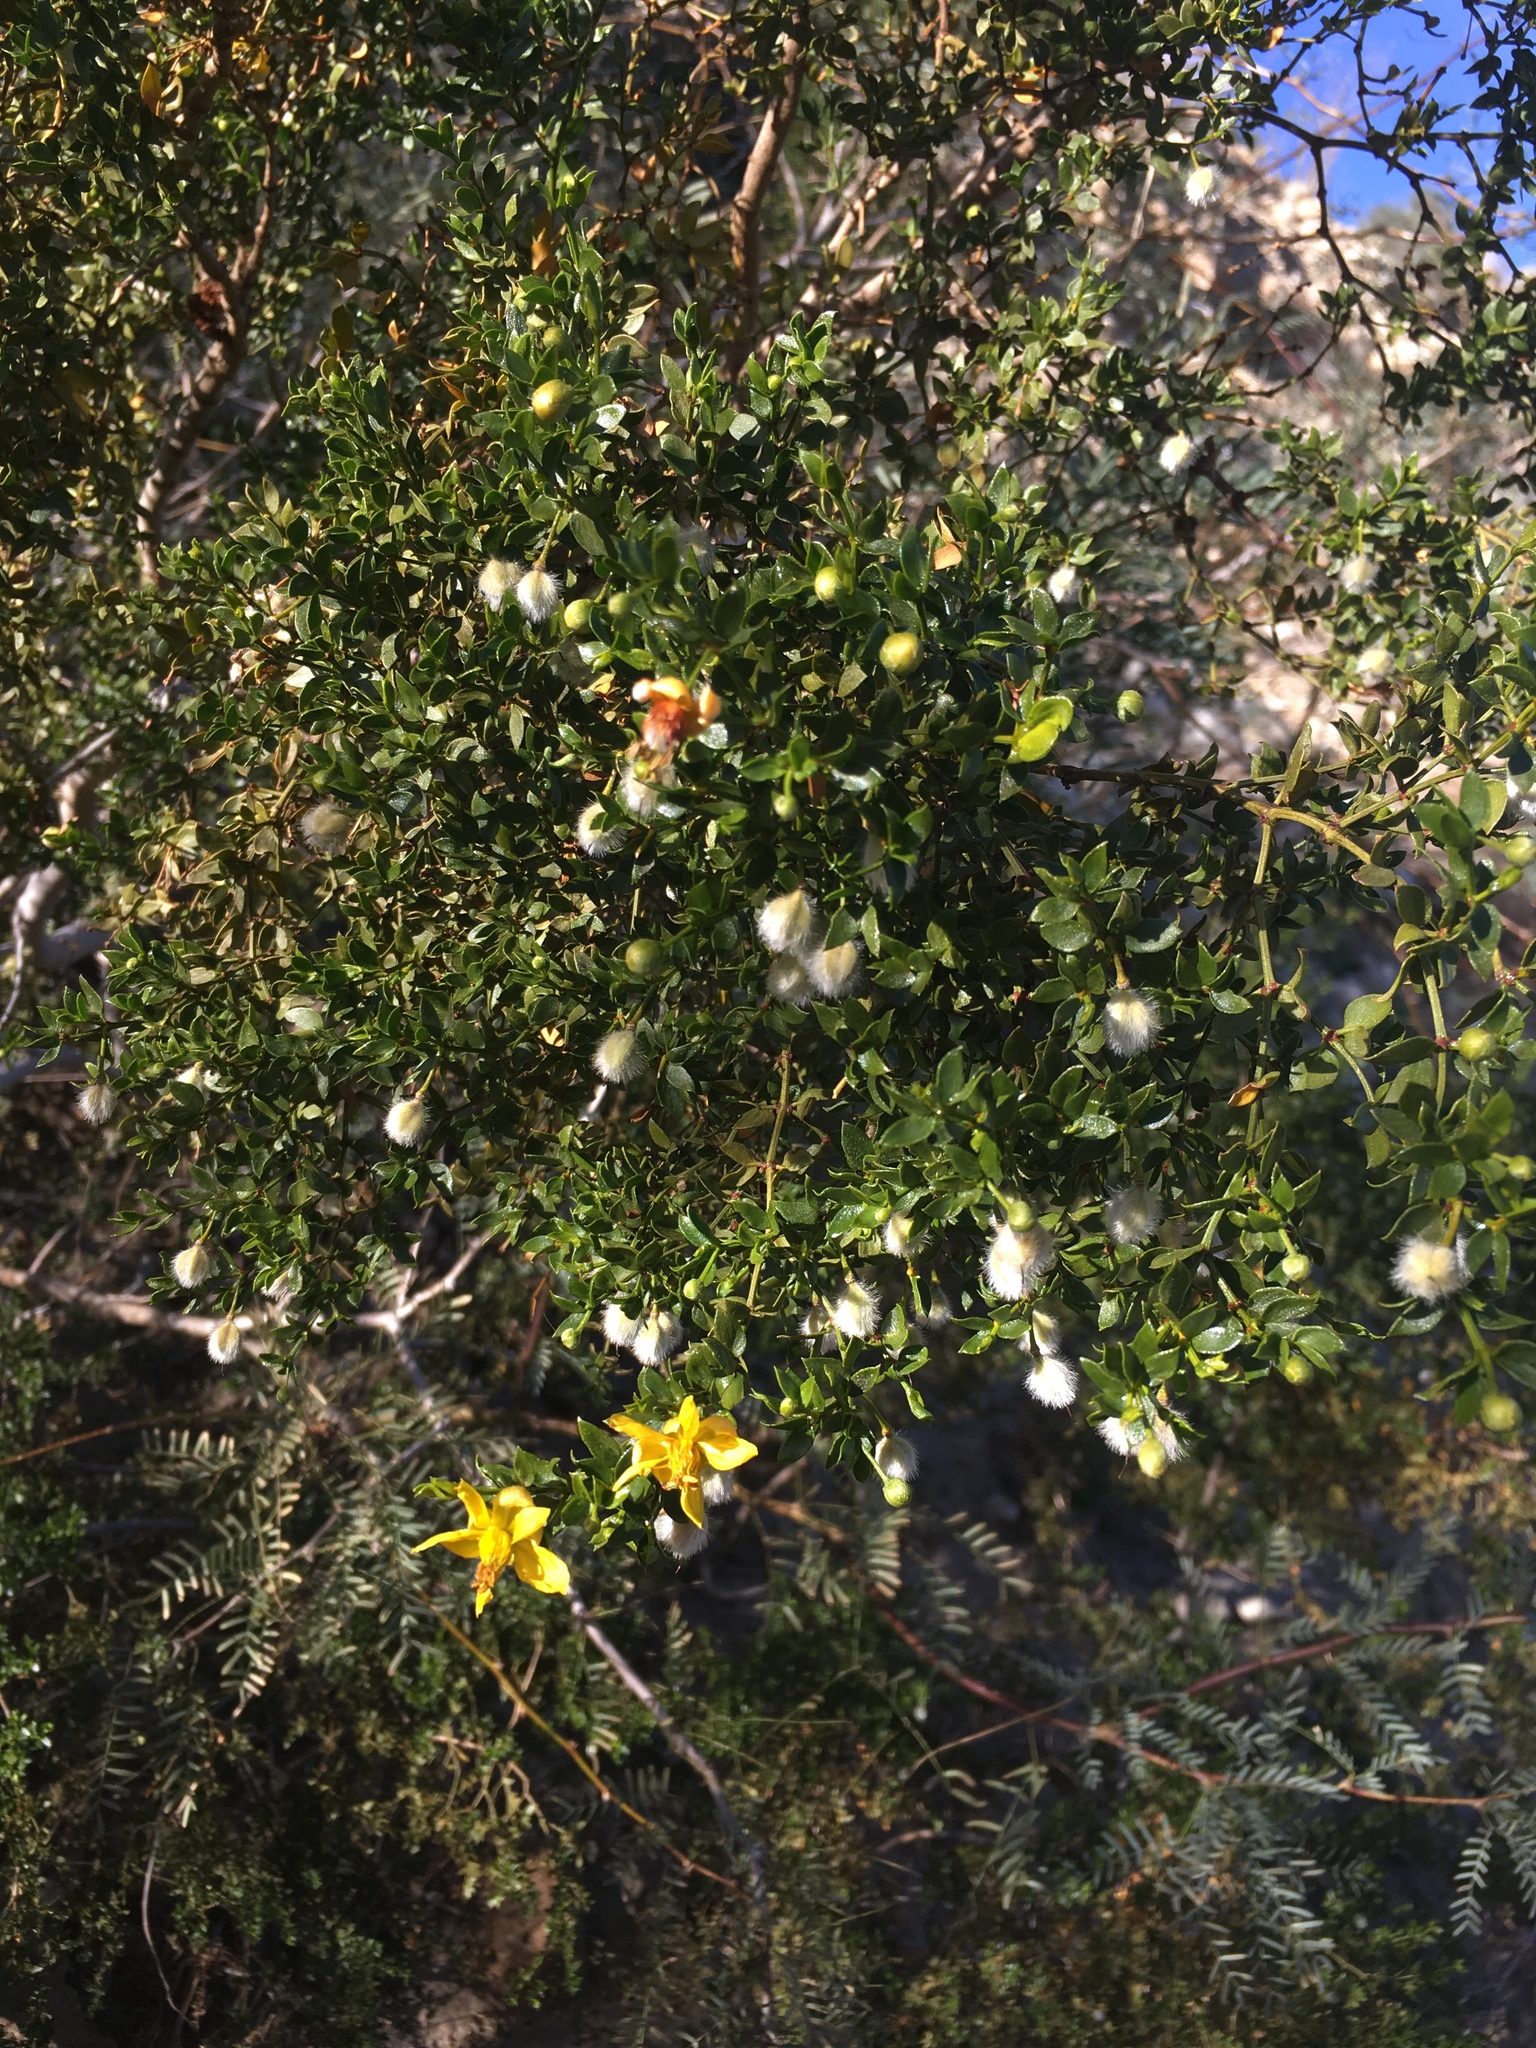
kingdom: Plantae
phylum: Tracheophyta
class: Magnoliopsida
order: Zygophyllales
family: Zygophyllaceae
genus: Larrea
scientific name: Larrea tridentata
